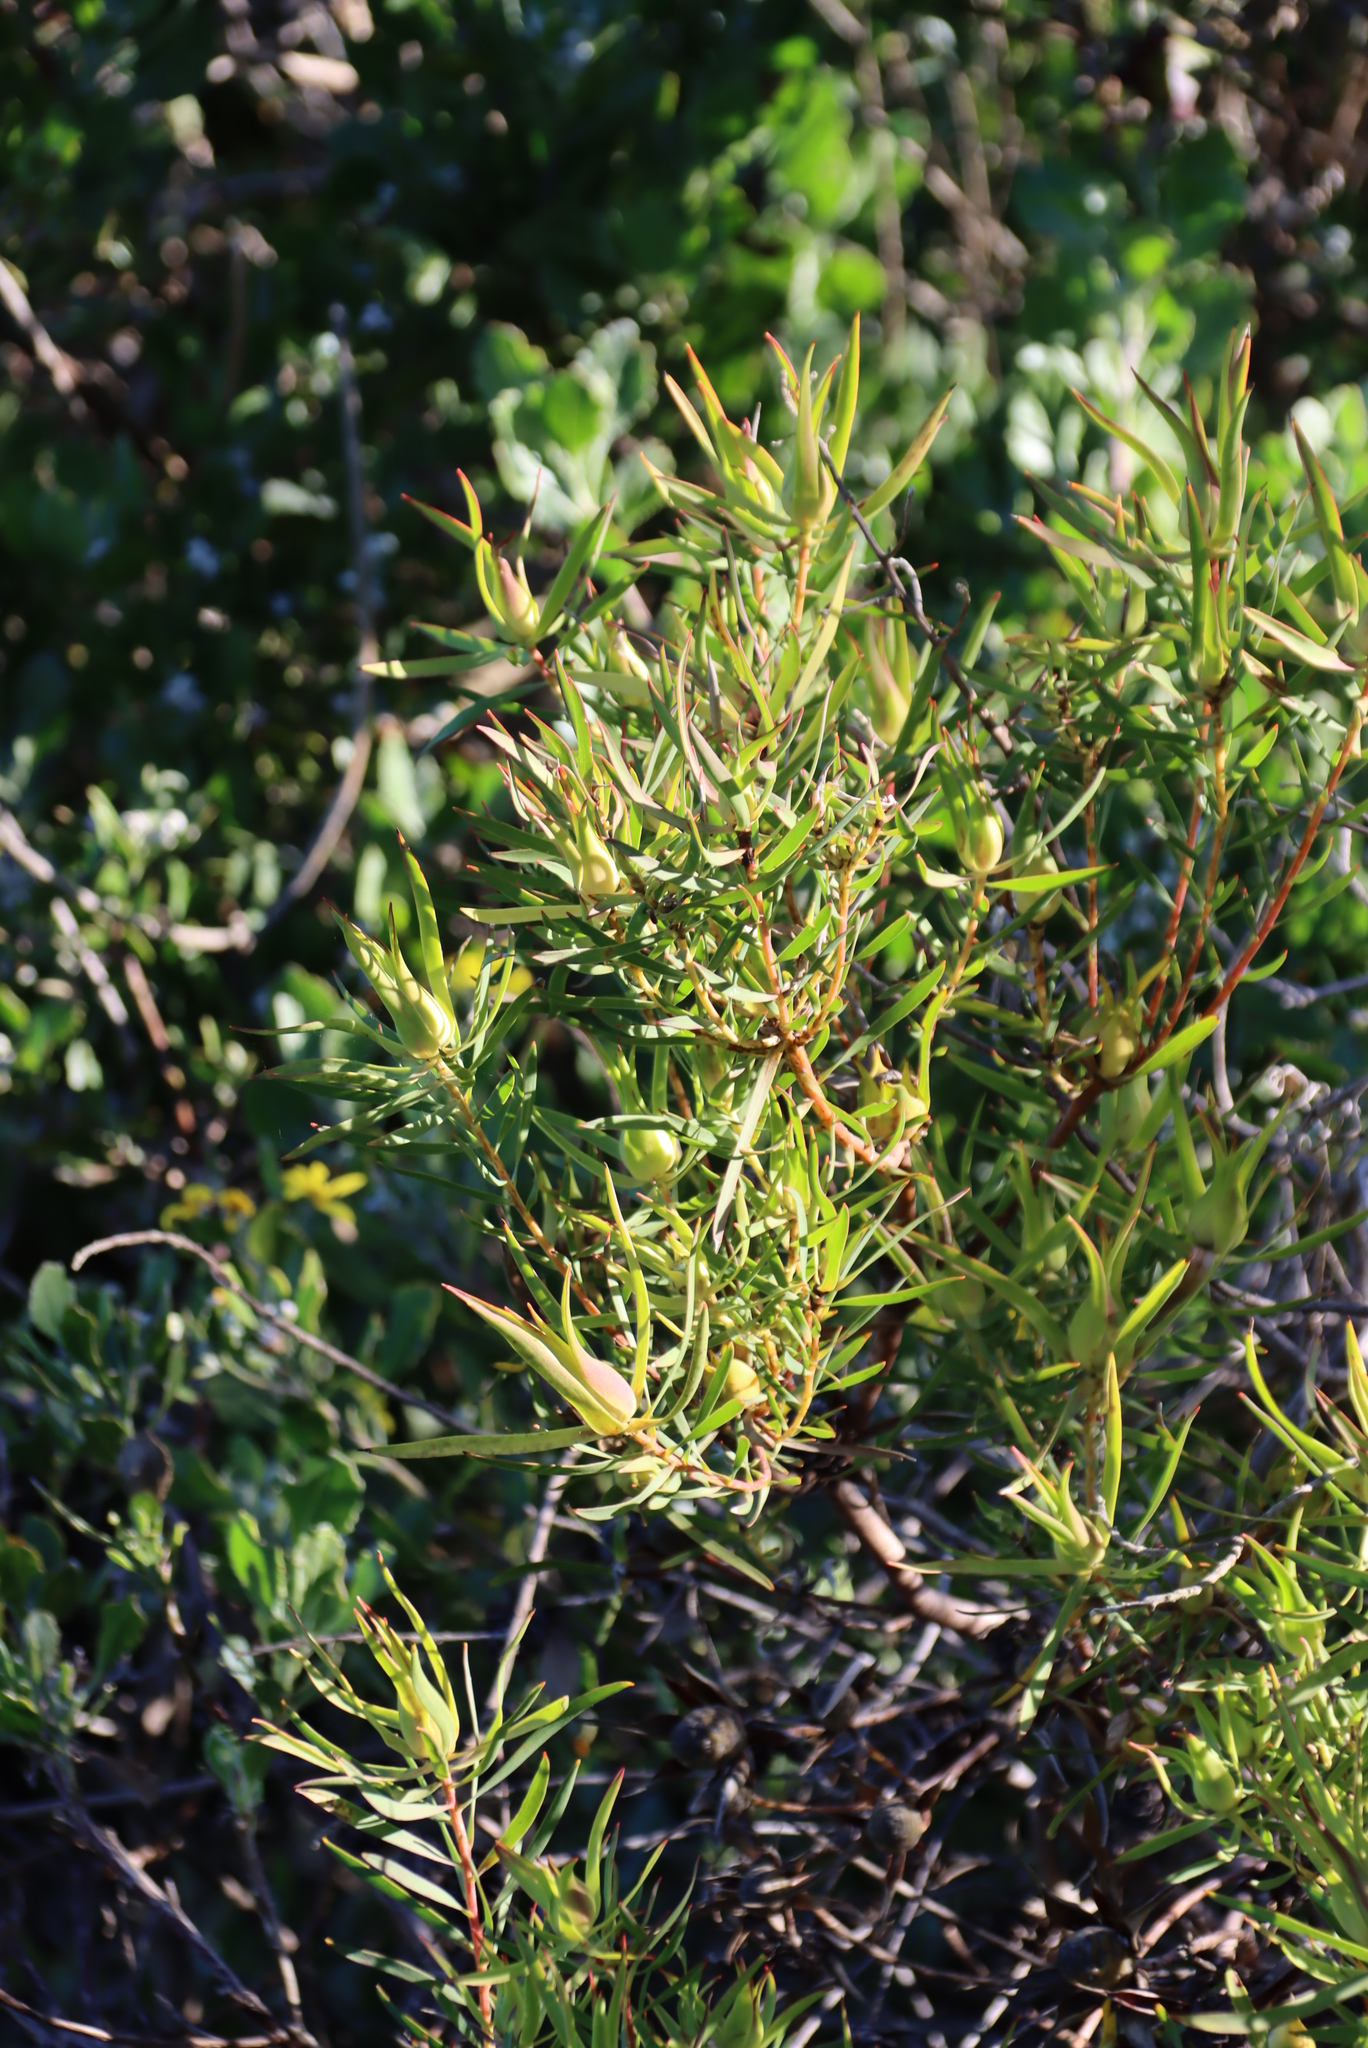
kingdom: Plantae
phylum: Tracheophyta
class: Magnoliopsida
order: Proteales
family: Proteaceae
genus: Leucadendron
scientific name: Leucadendron salignum
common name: Common sunshine conebush
